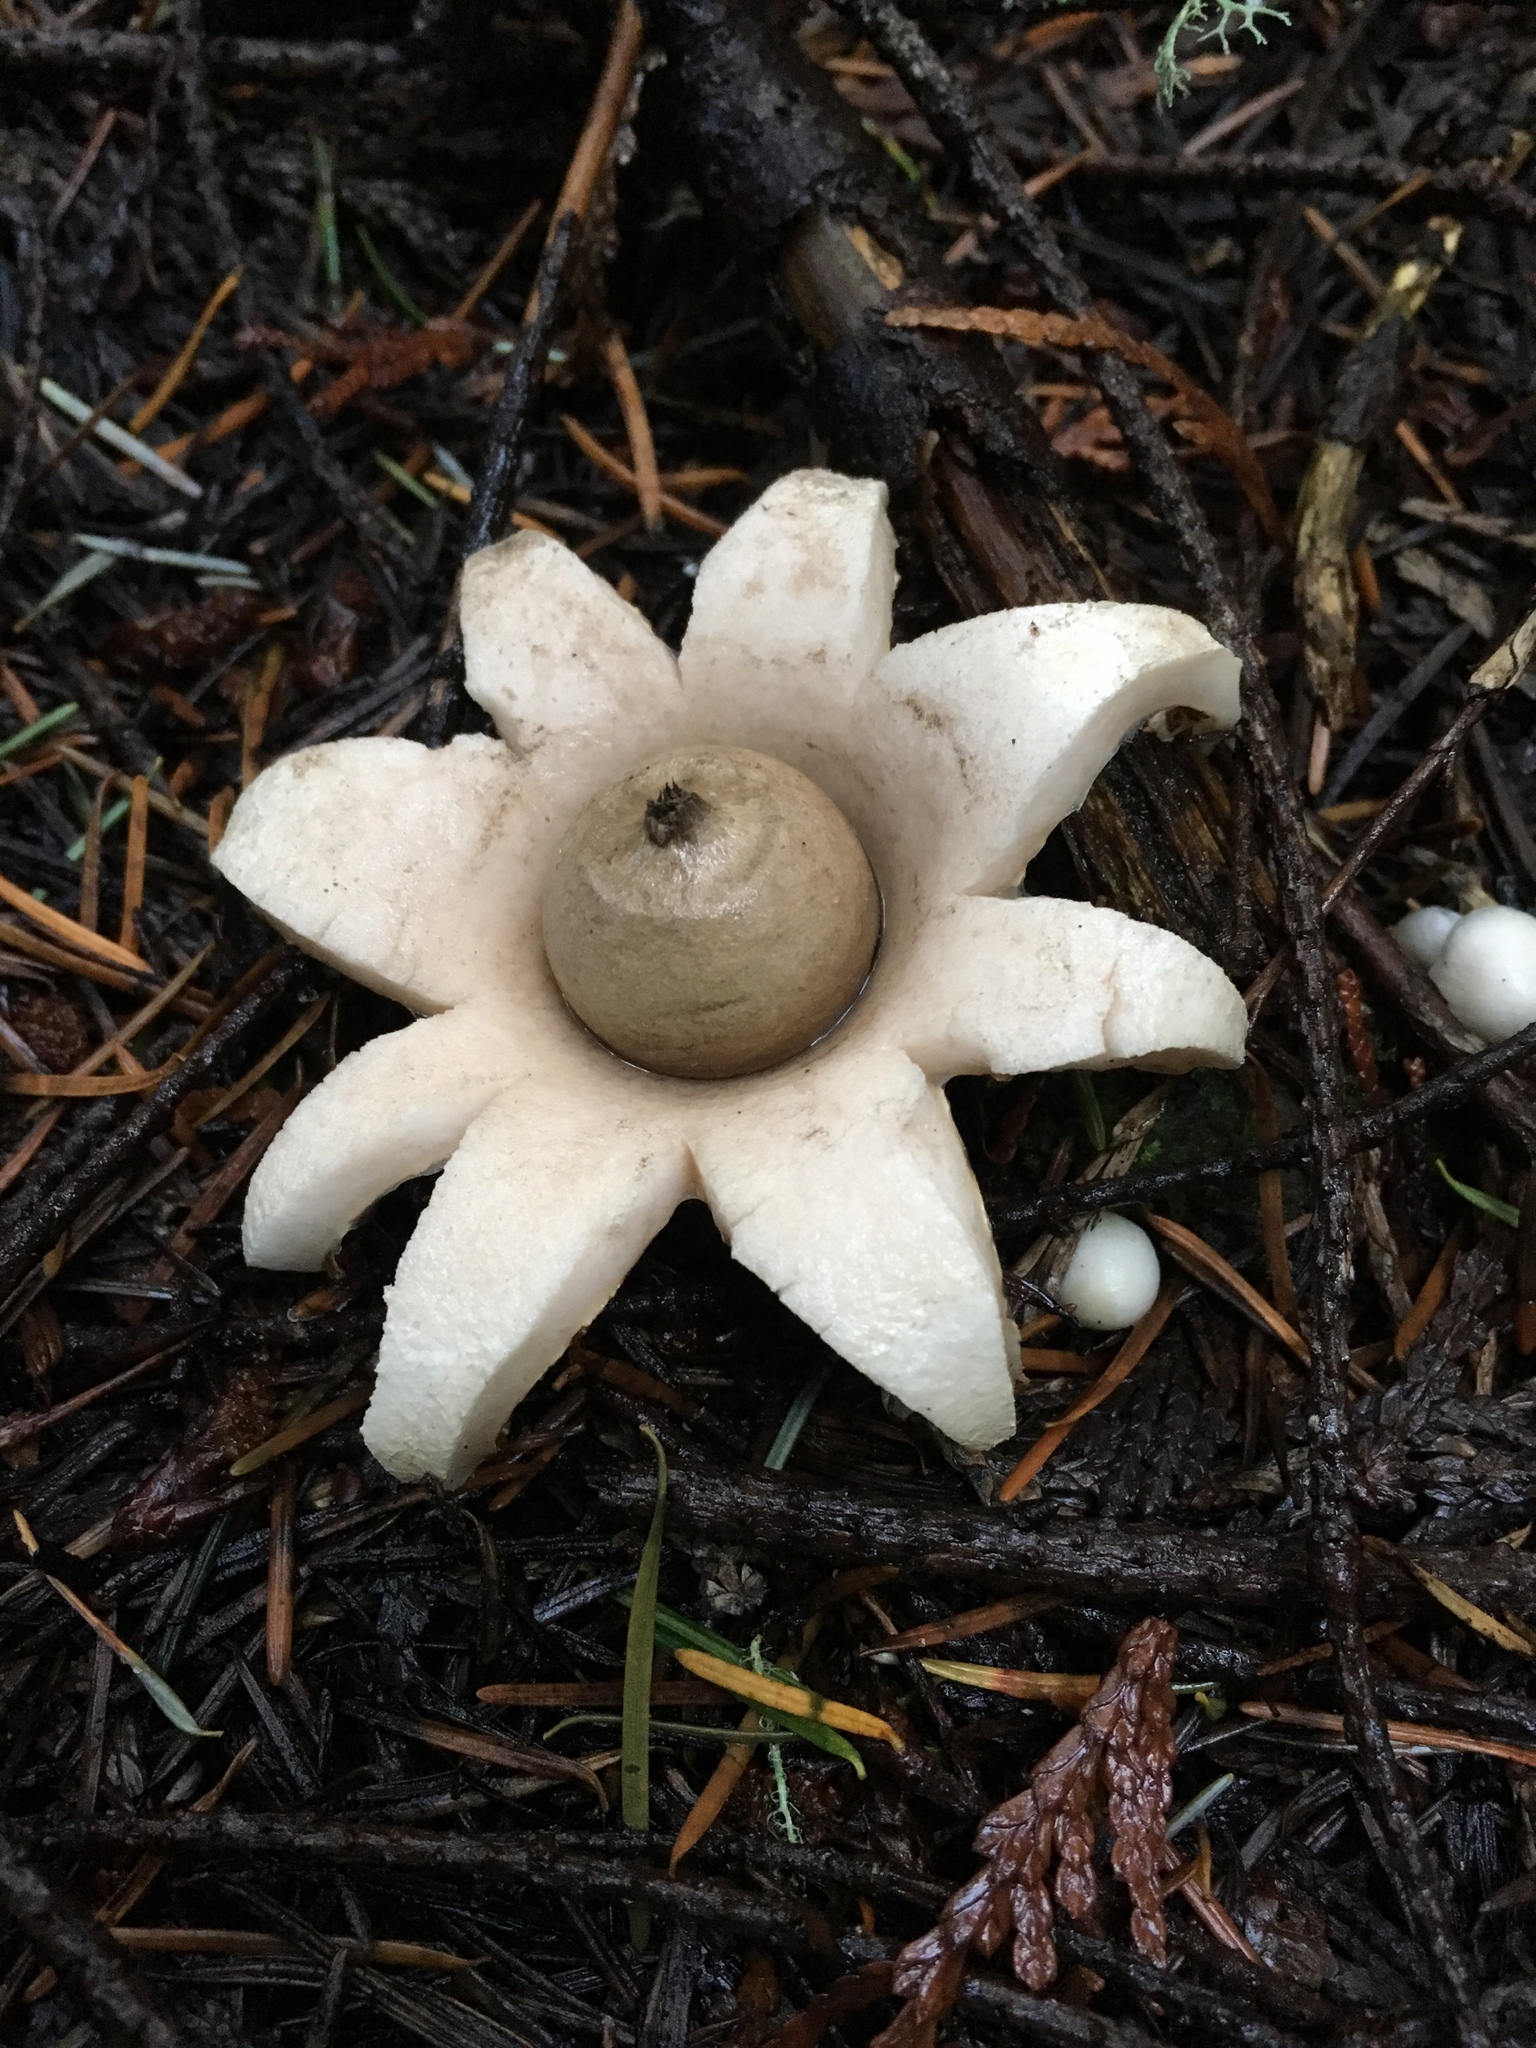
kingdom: Fungi
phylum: Basidiomycota
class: Agaricomycetes
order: Geastrales
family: Geastraceae
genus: Geastrum
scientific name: Geastrum saccatum
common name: Rounded earthstar
